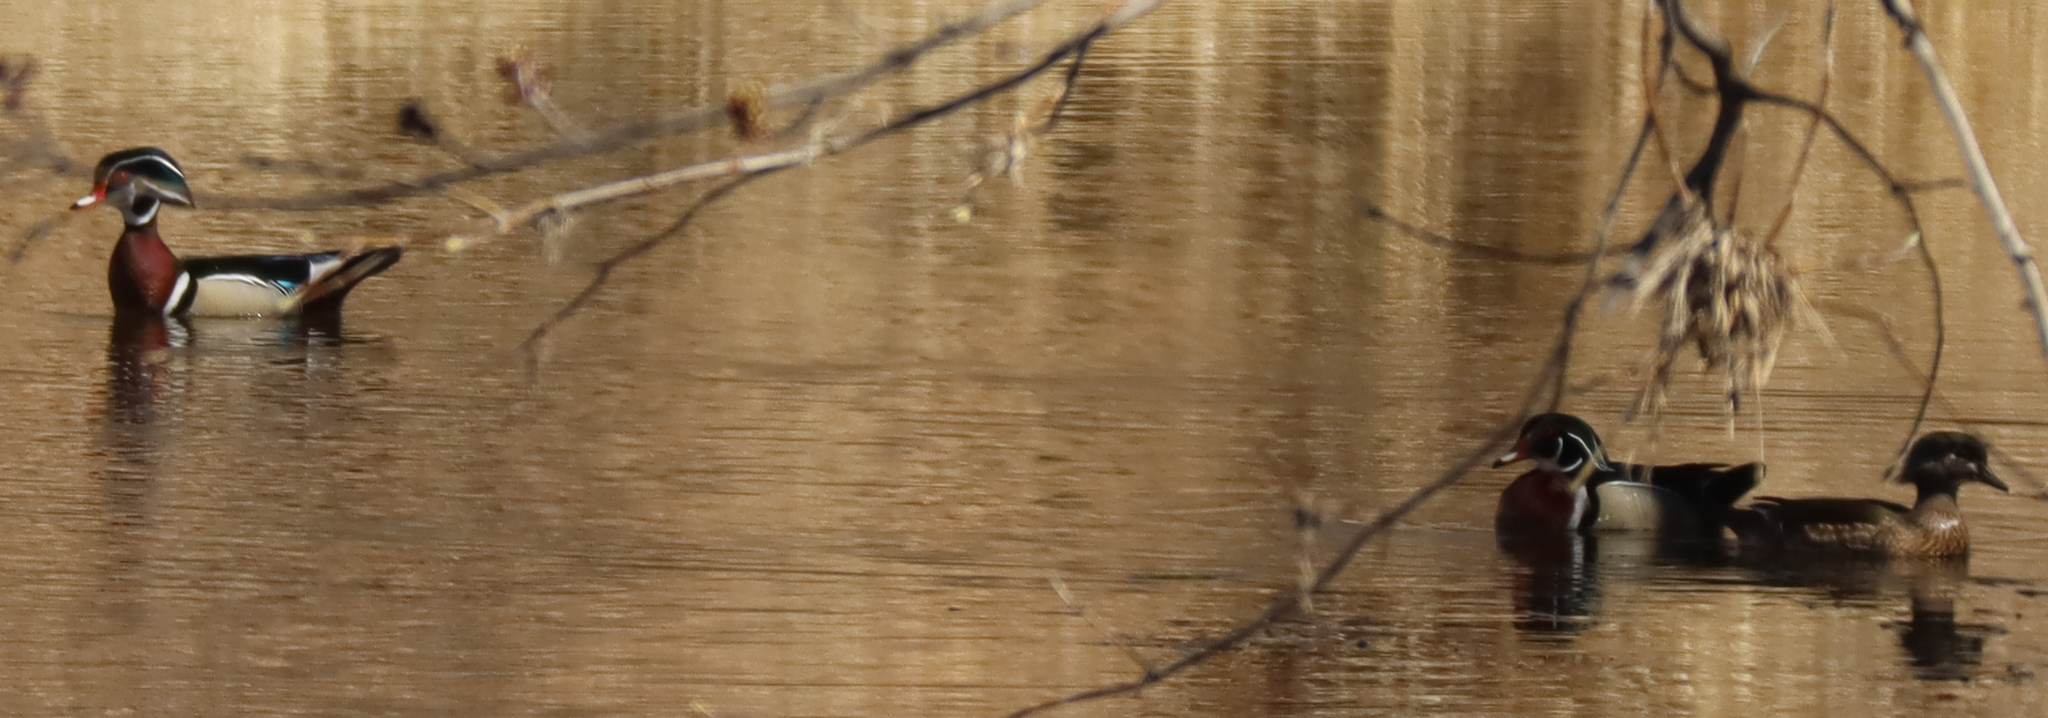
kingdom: Animalia
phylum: Chordata
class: Aves
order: Anseriformes
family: Anatidae
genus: Aix
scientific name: Aix sponsa
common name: Wood duck
